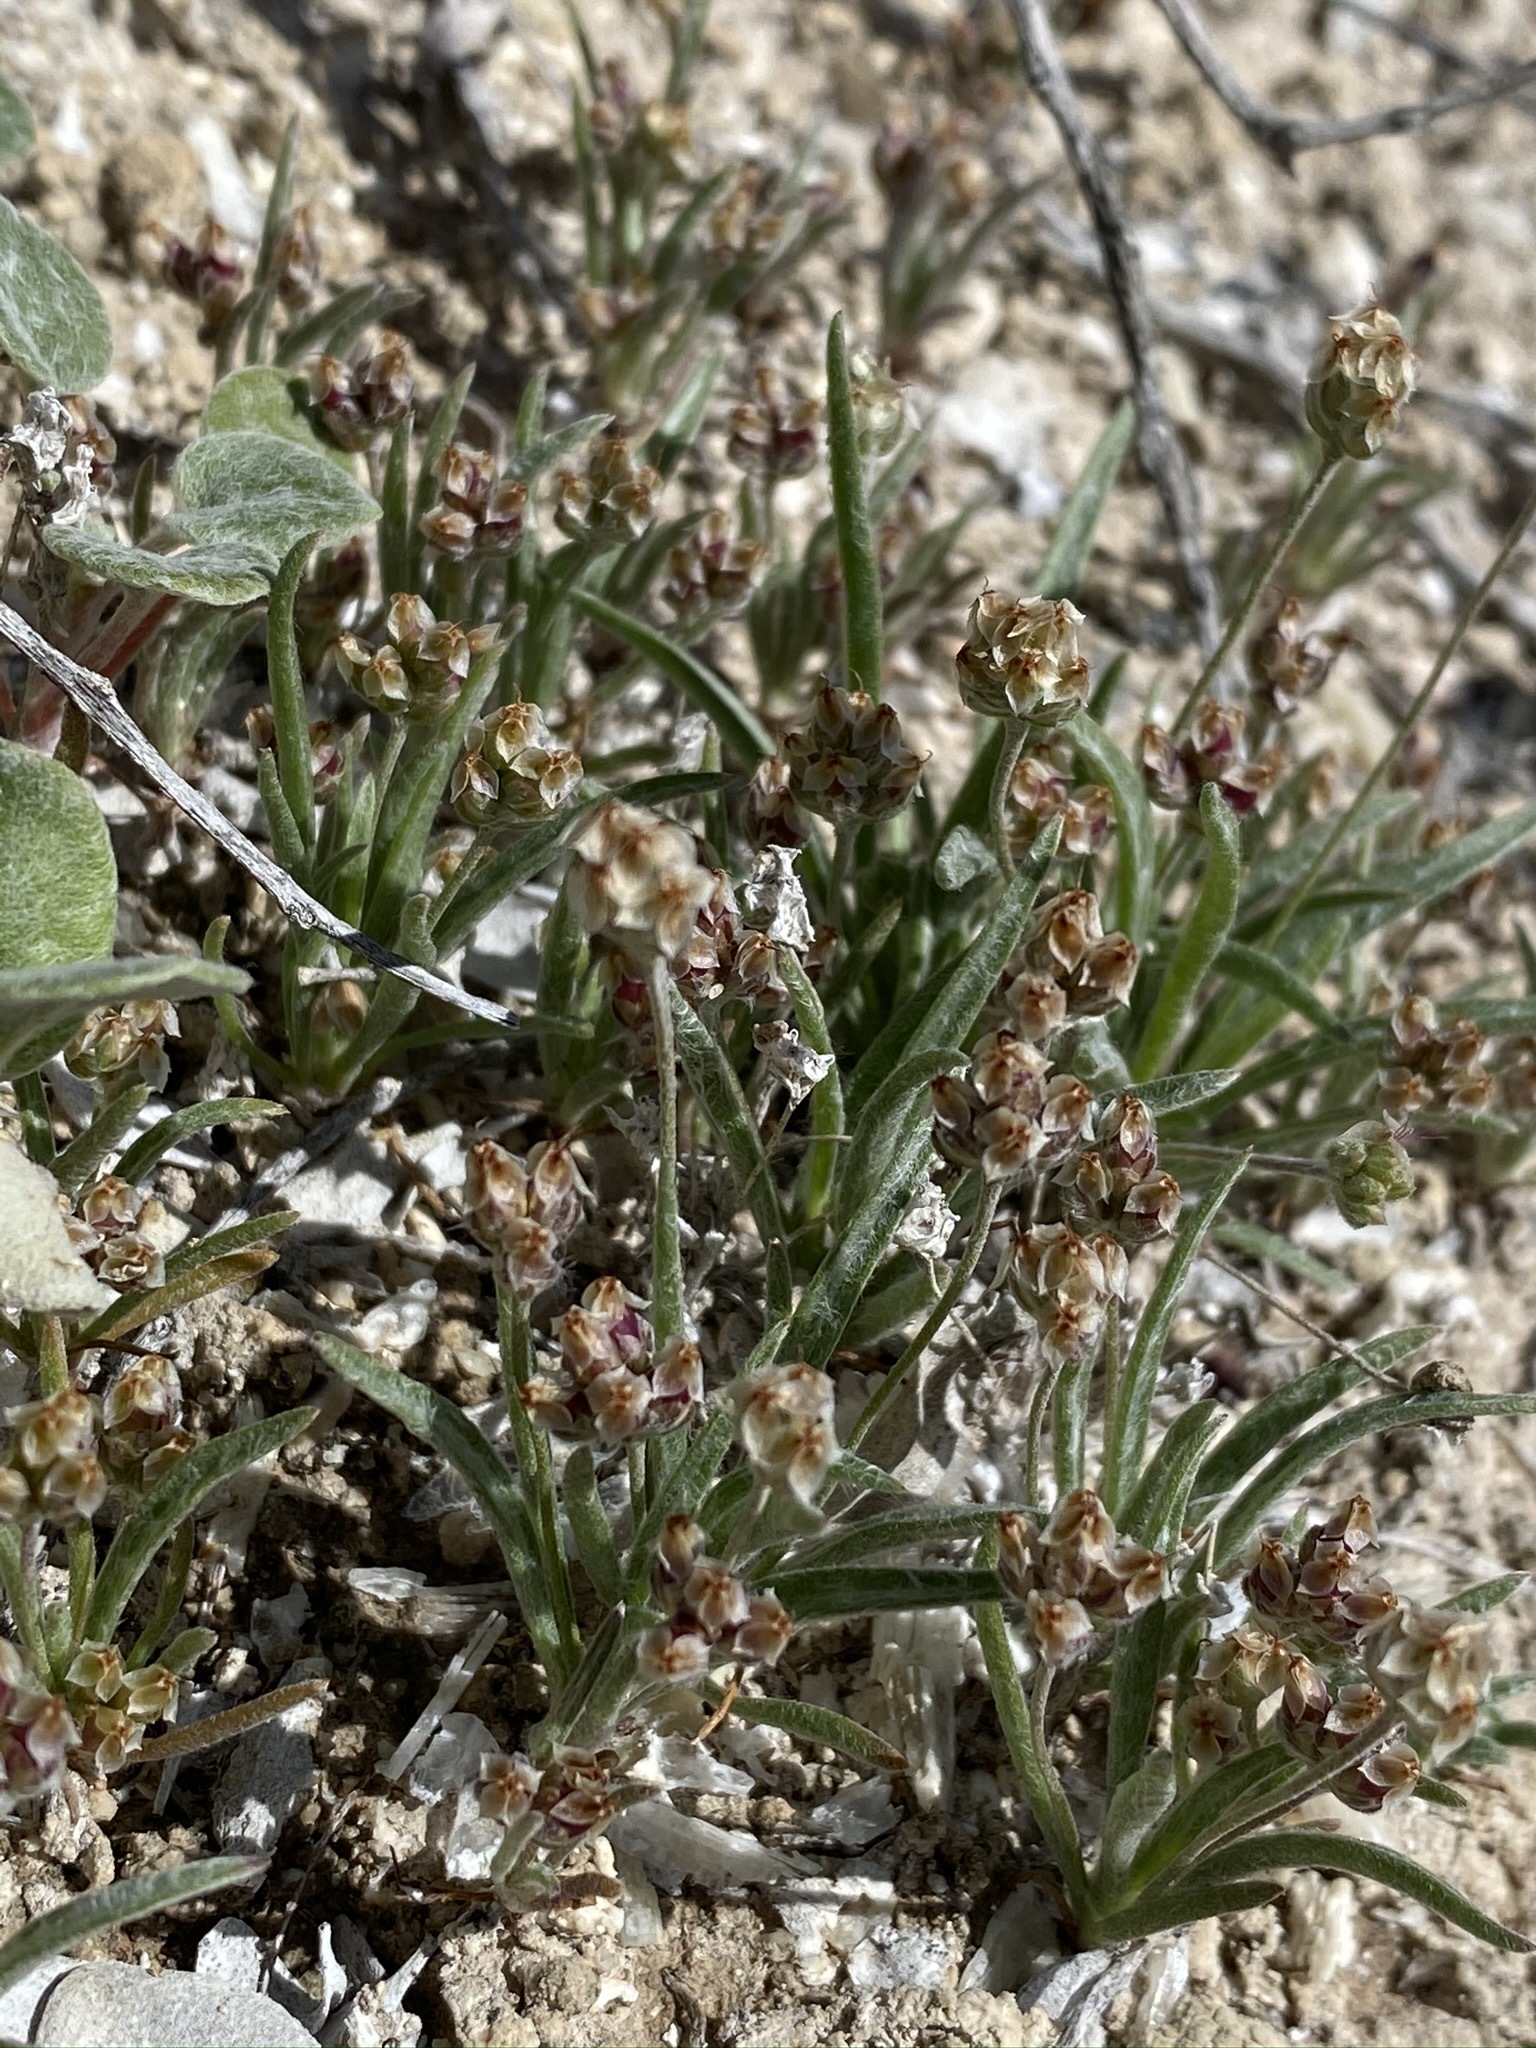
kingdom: Plantae
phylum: Tracheophyta
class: Magnoliopsida
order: Lamiales
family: Plantaginaceae
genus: Plantago
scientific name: Plantago ovata
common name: Blond plantain
